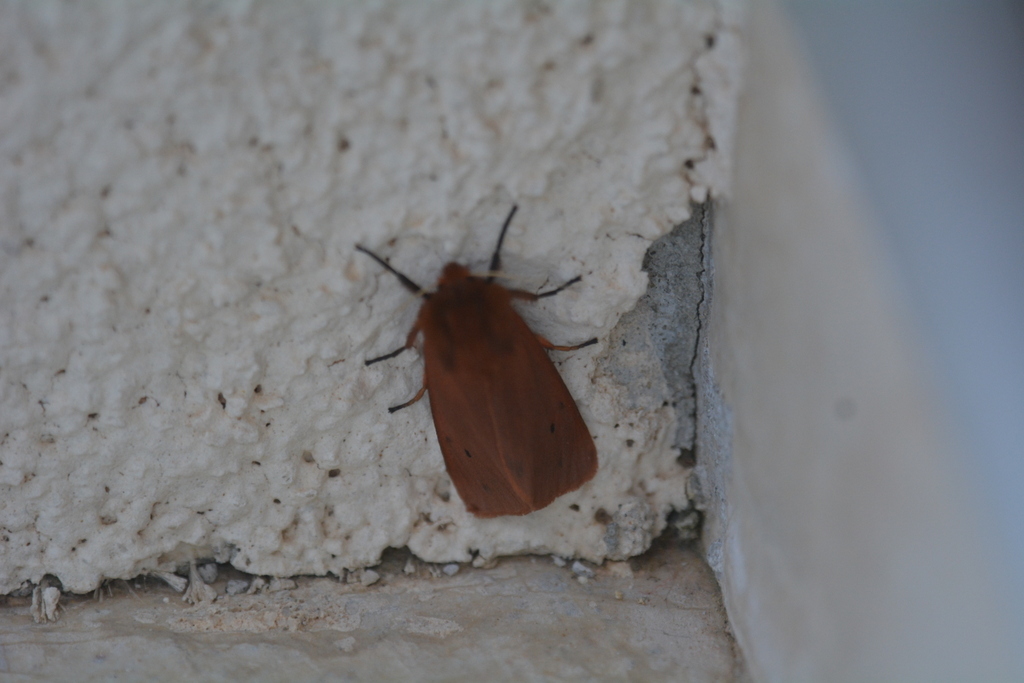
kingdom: Animalia
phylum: Arthropoda
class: Insecta
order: Lepidoptera
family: Erebidae
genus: Phragmatobia
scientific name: Phragmatobia fuliginosa
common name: Ruby tiger
